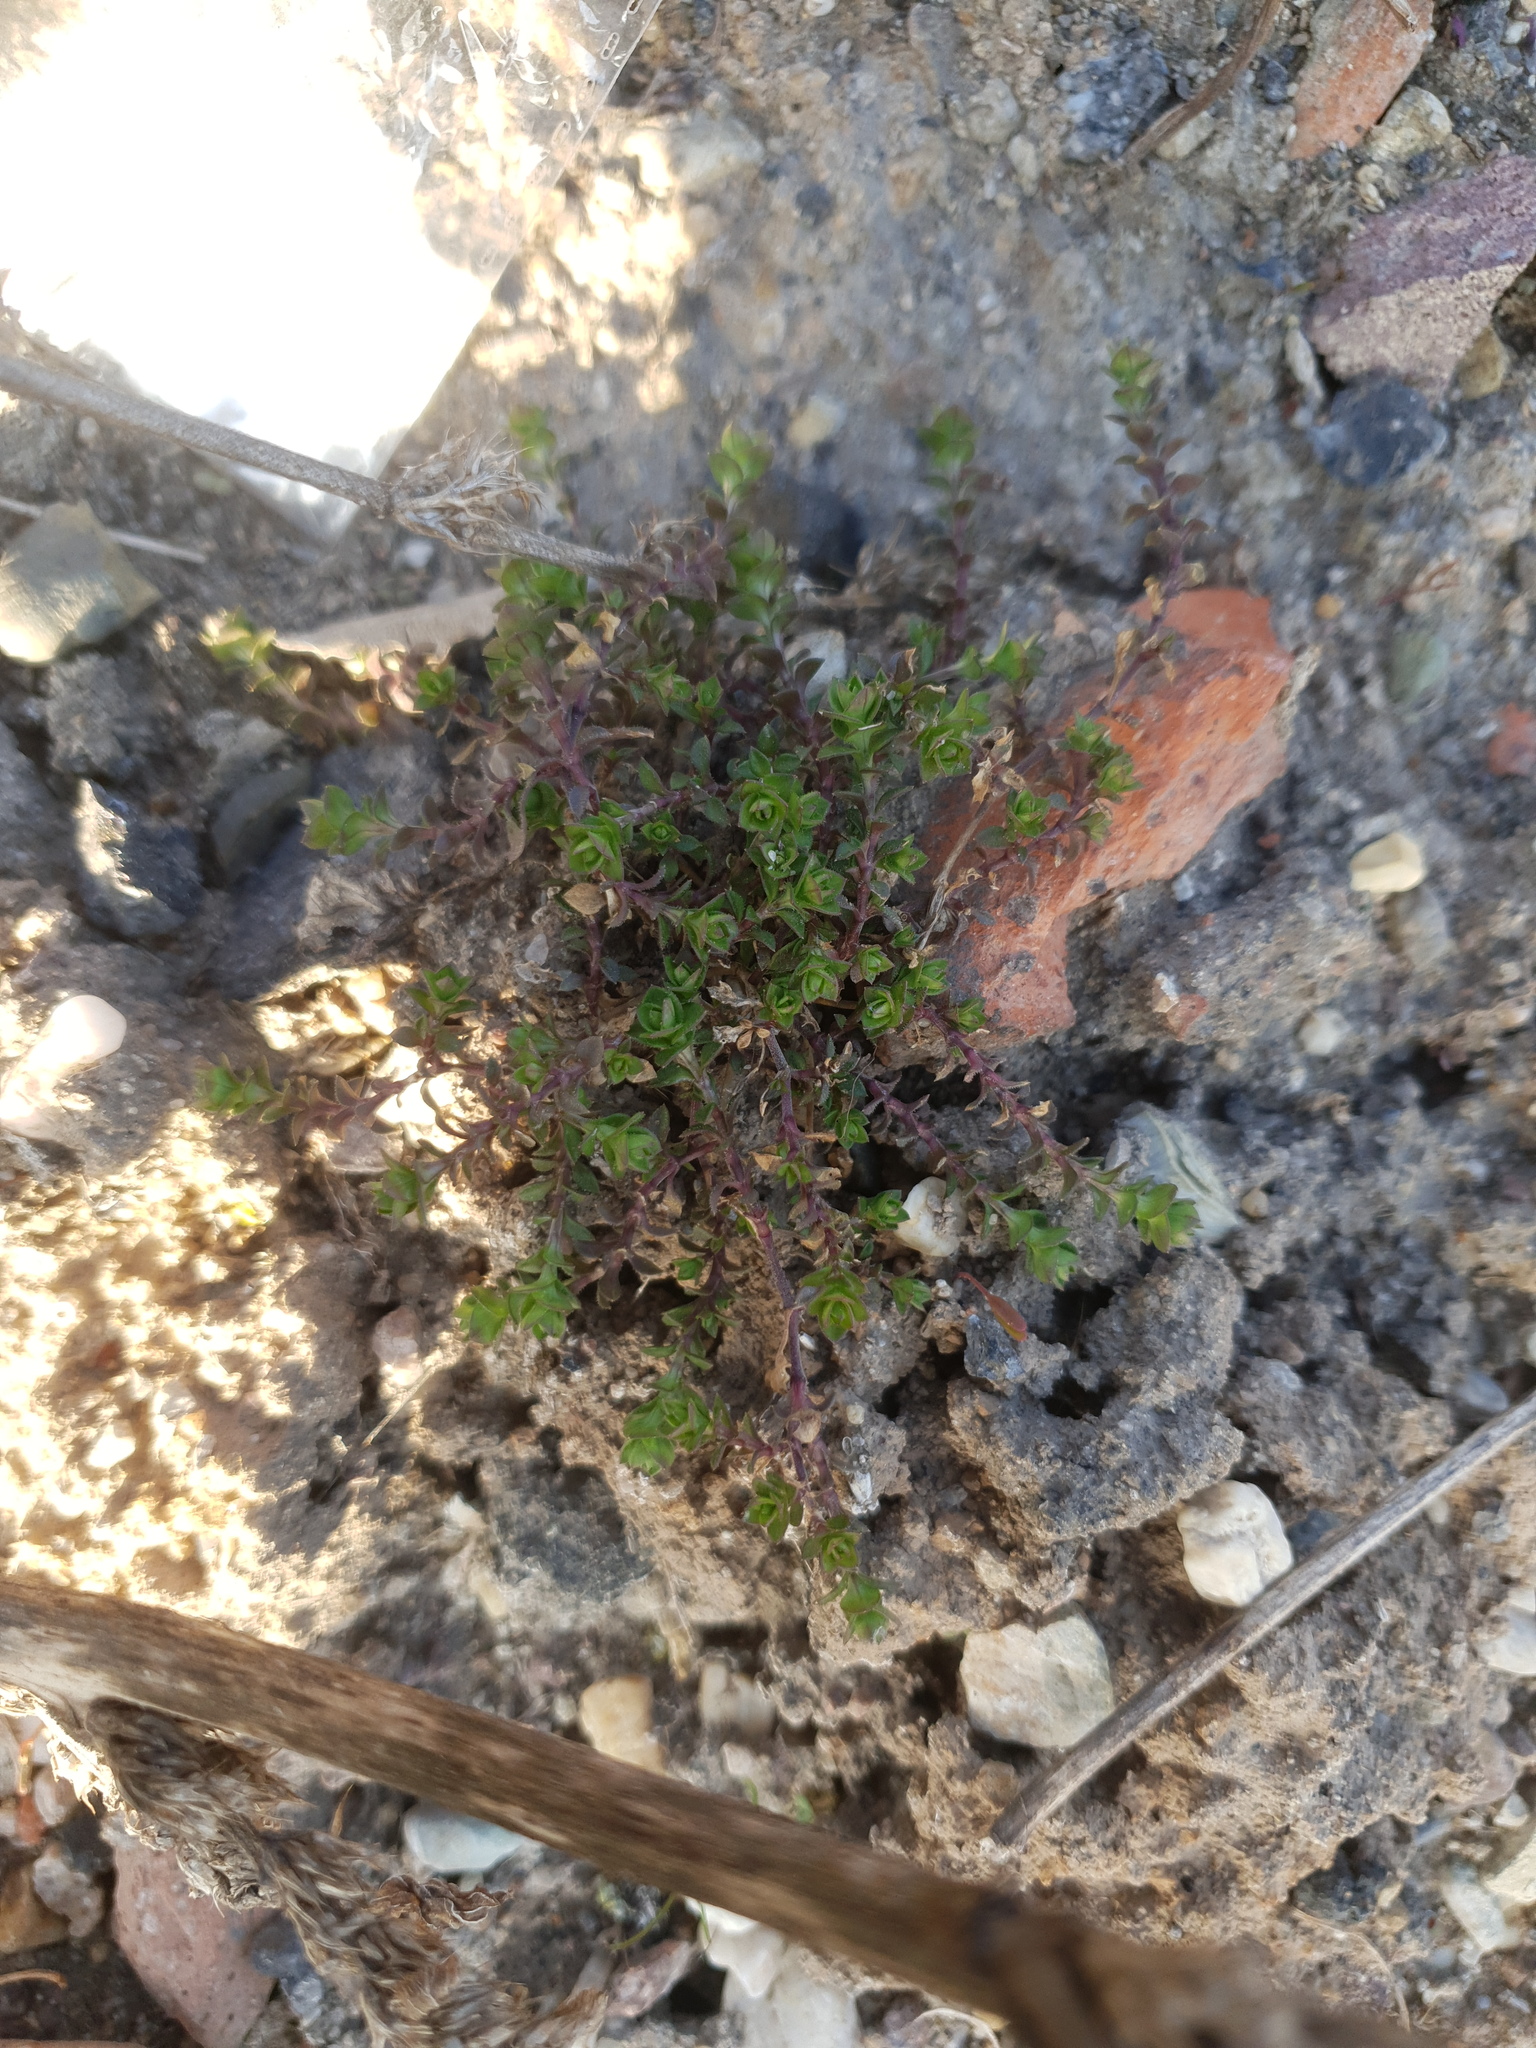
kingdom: Plantae
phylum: Tracheophyta
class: Magnoliopsida
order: Caryophyllales
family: Caryophyllaceae
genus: Arenaria
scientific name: Arenaria serpyllifolia
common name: Thyme-leaved sandwort
